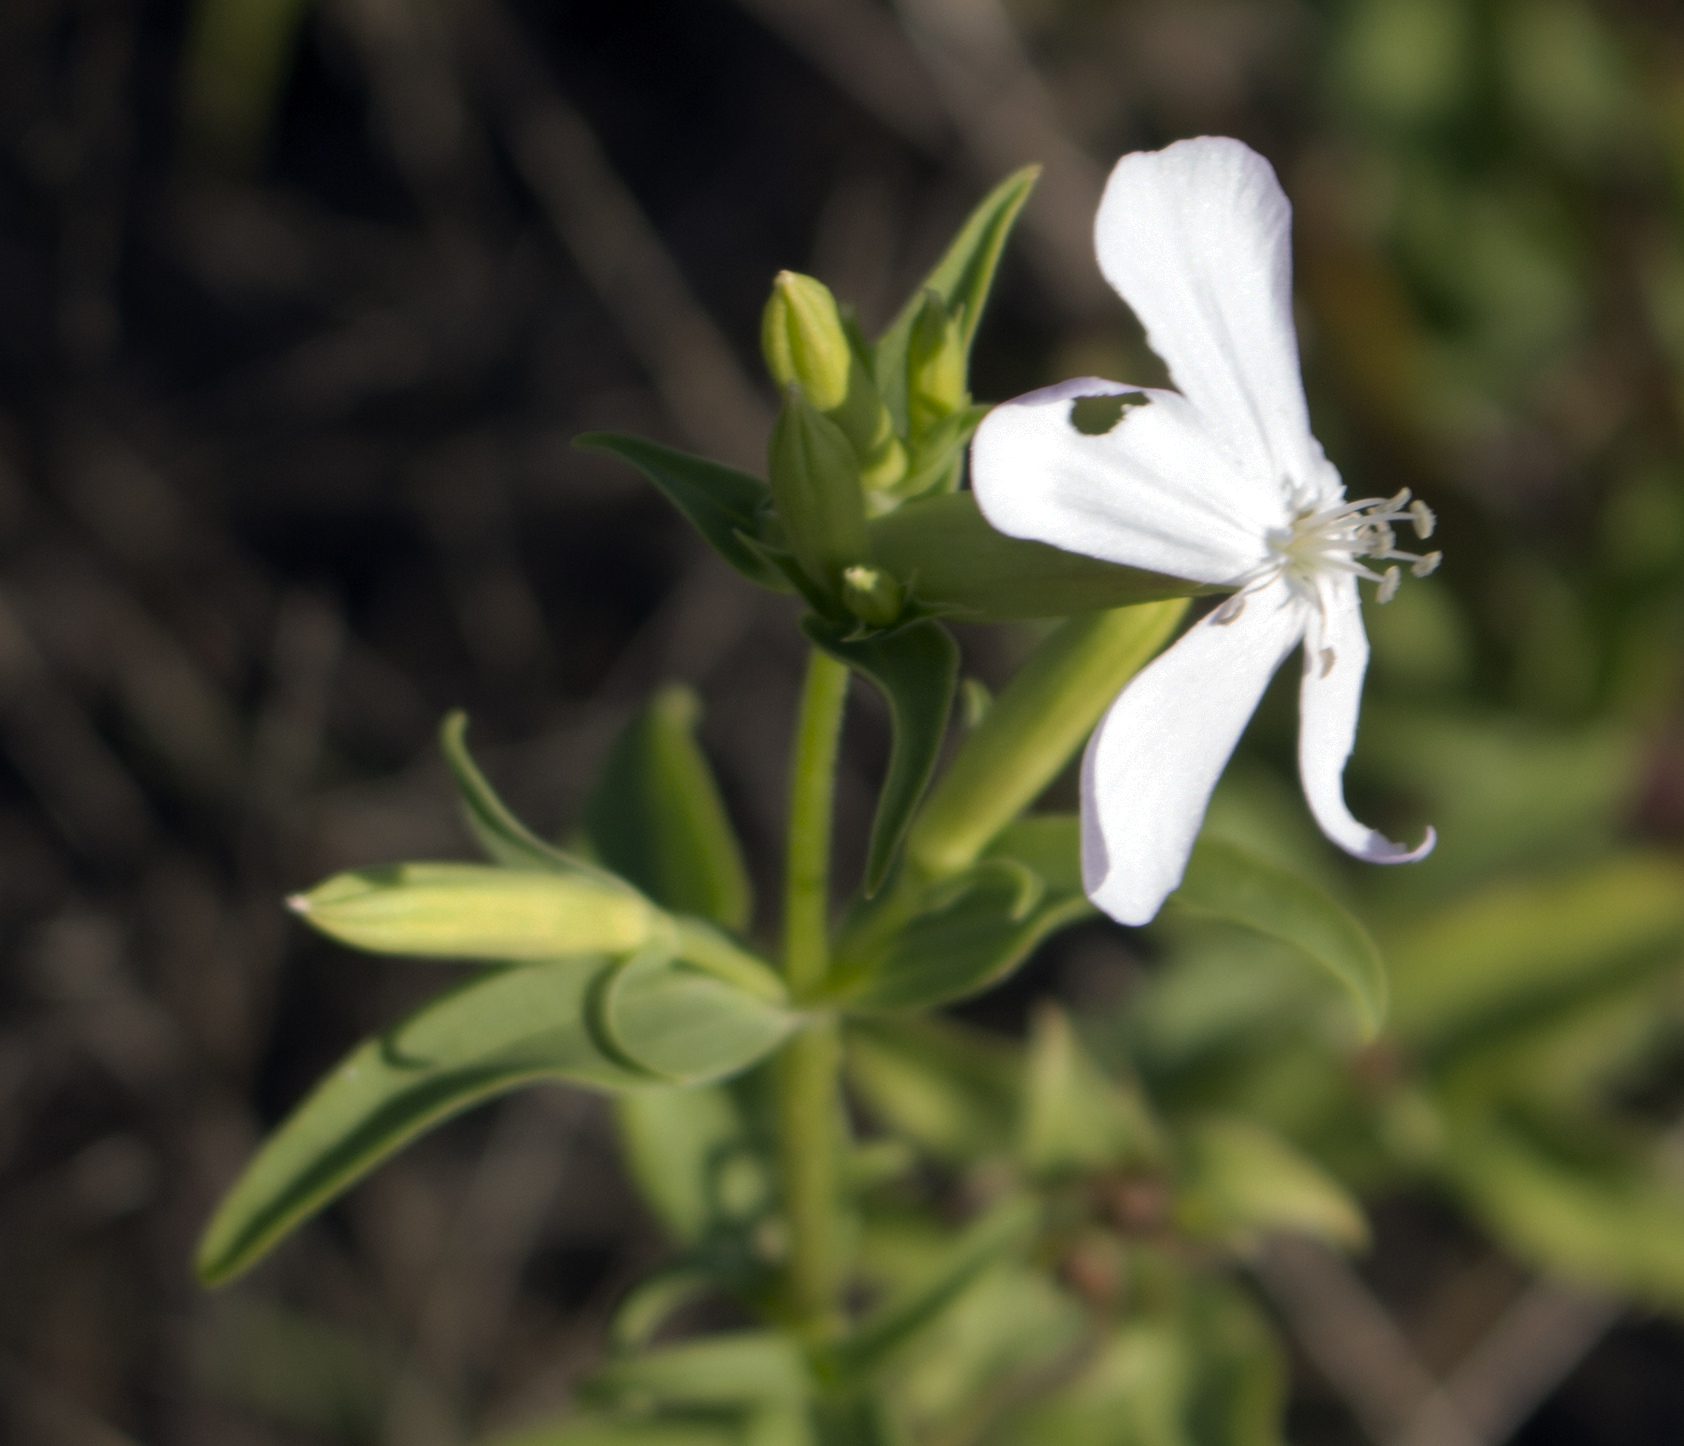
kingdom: Plantae
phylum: Tracheophyta
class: Magnoliopsida
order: Caryophyllales
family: Caryophyllaceae
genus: Saponaria
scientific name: Saponaria officinalis
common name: Soapwort
